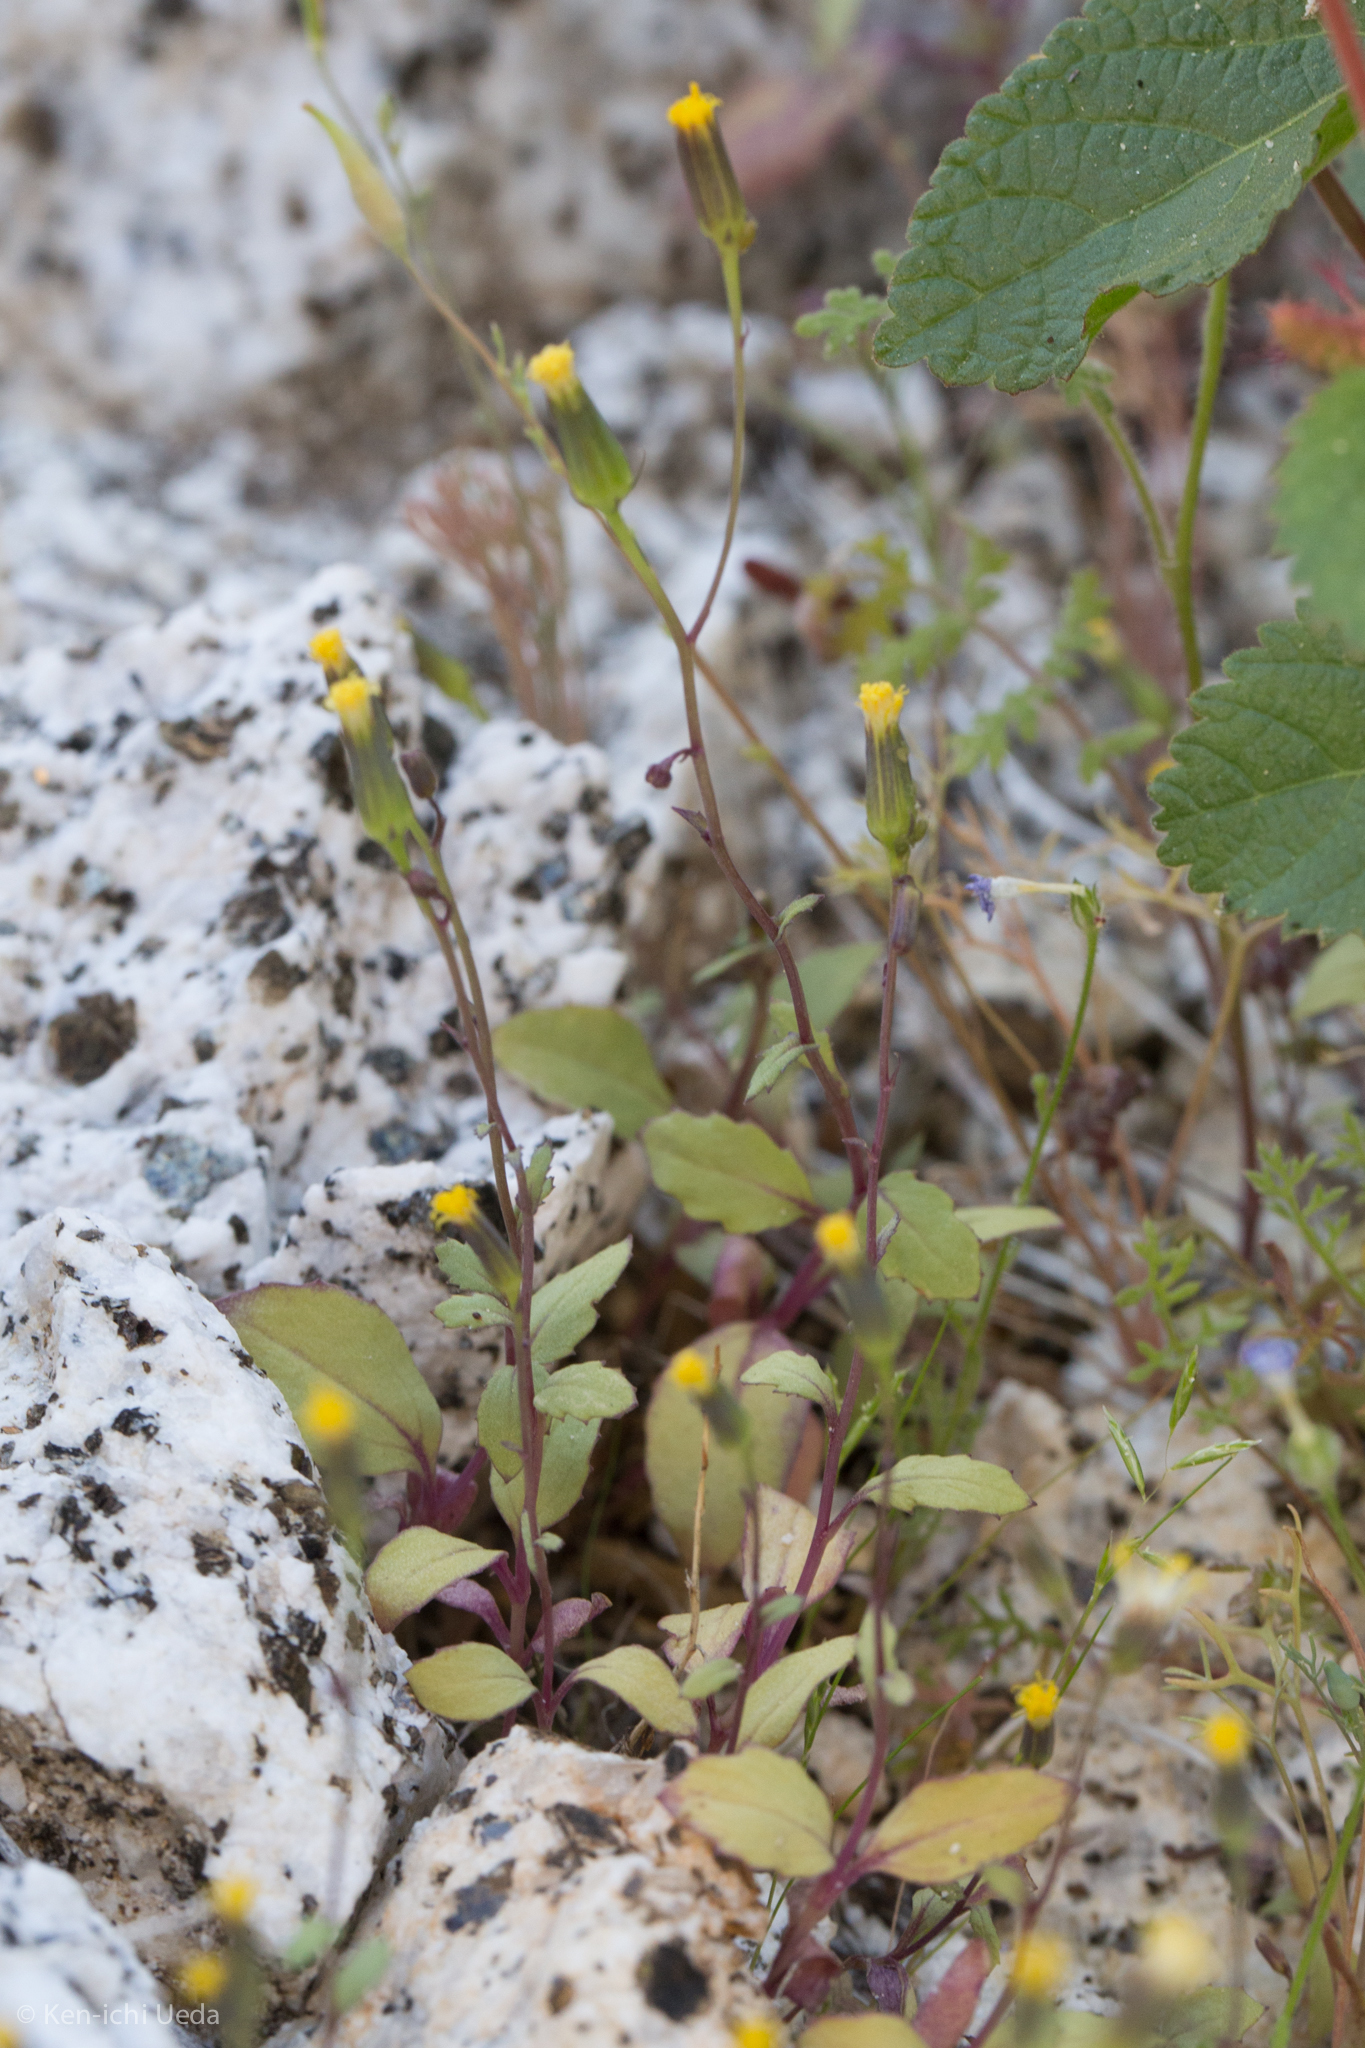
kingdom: Plantae
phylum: Tracheophyta
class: Magnoliopsida
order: Asterales
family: Asteraceae
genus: Senecio
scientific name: Senecio mohavensis
